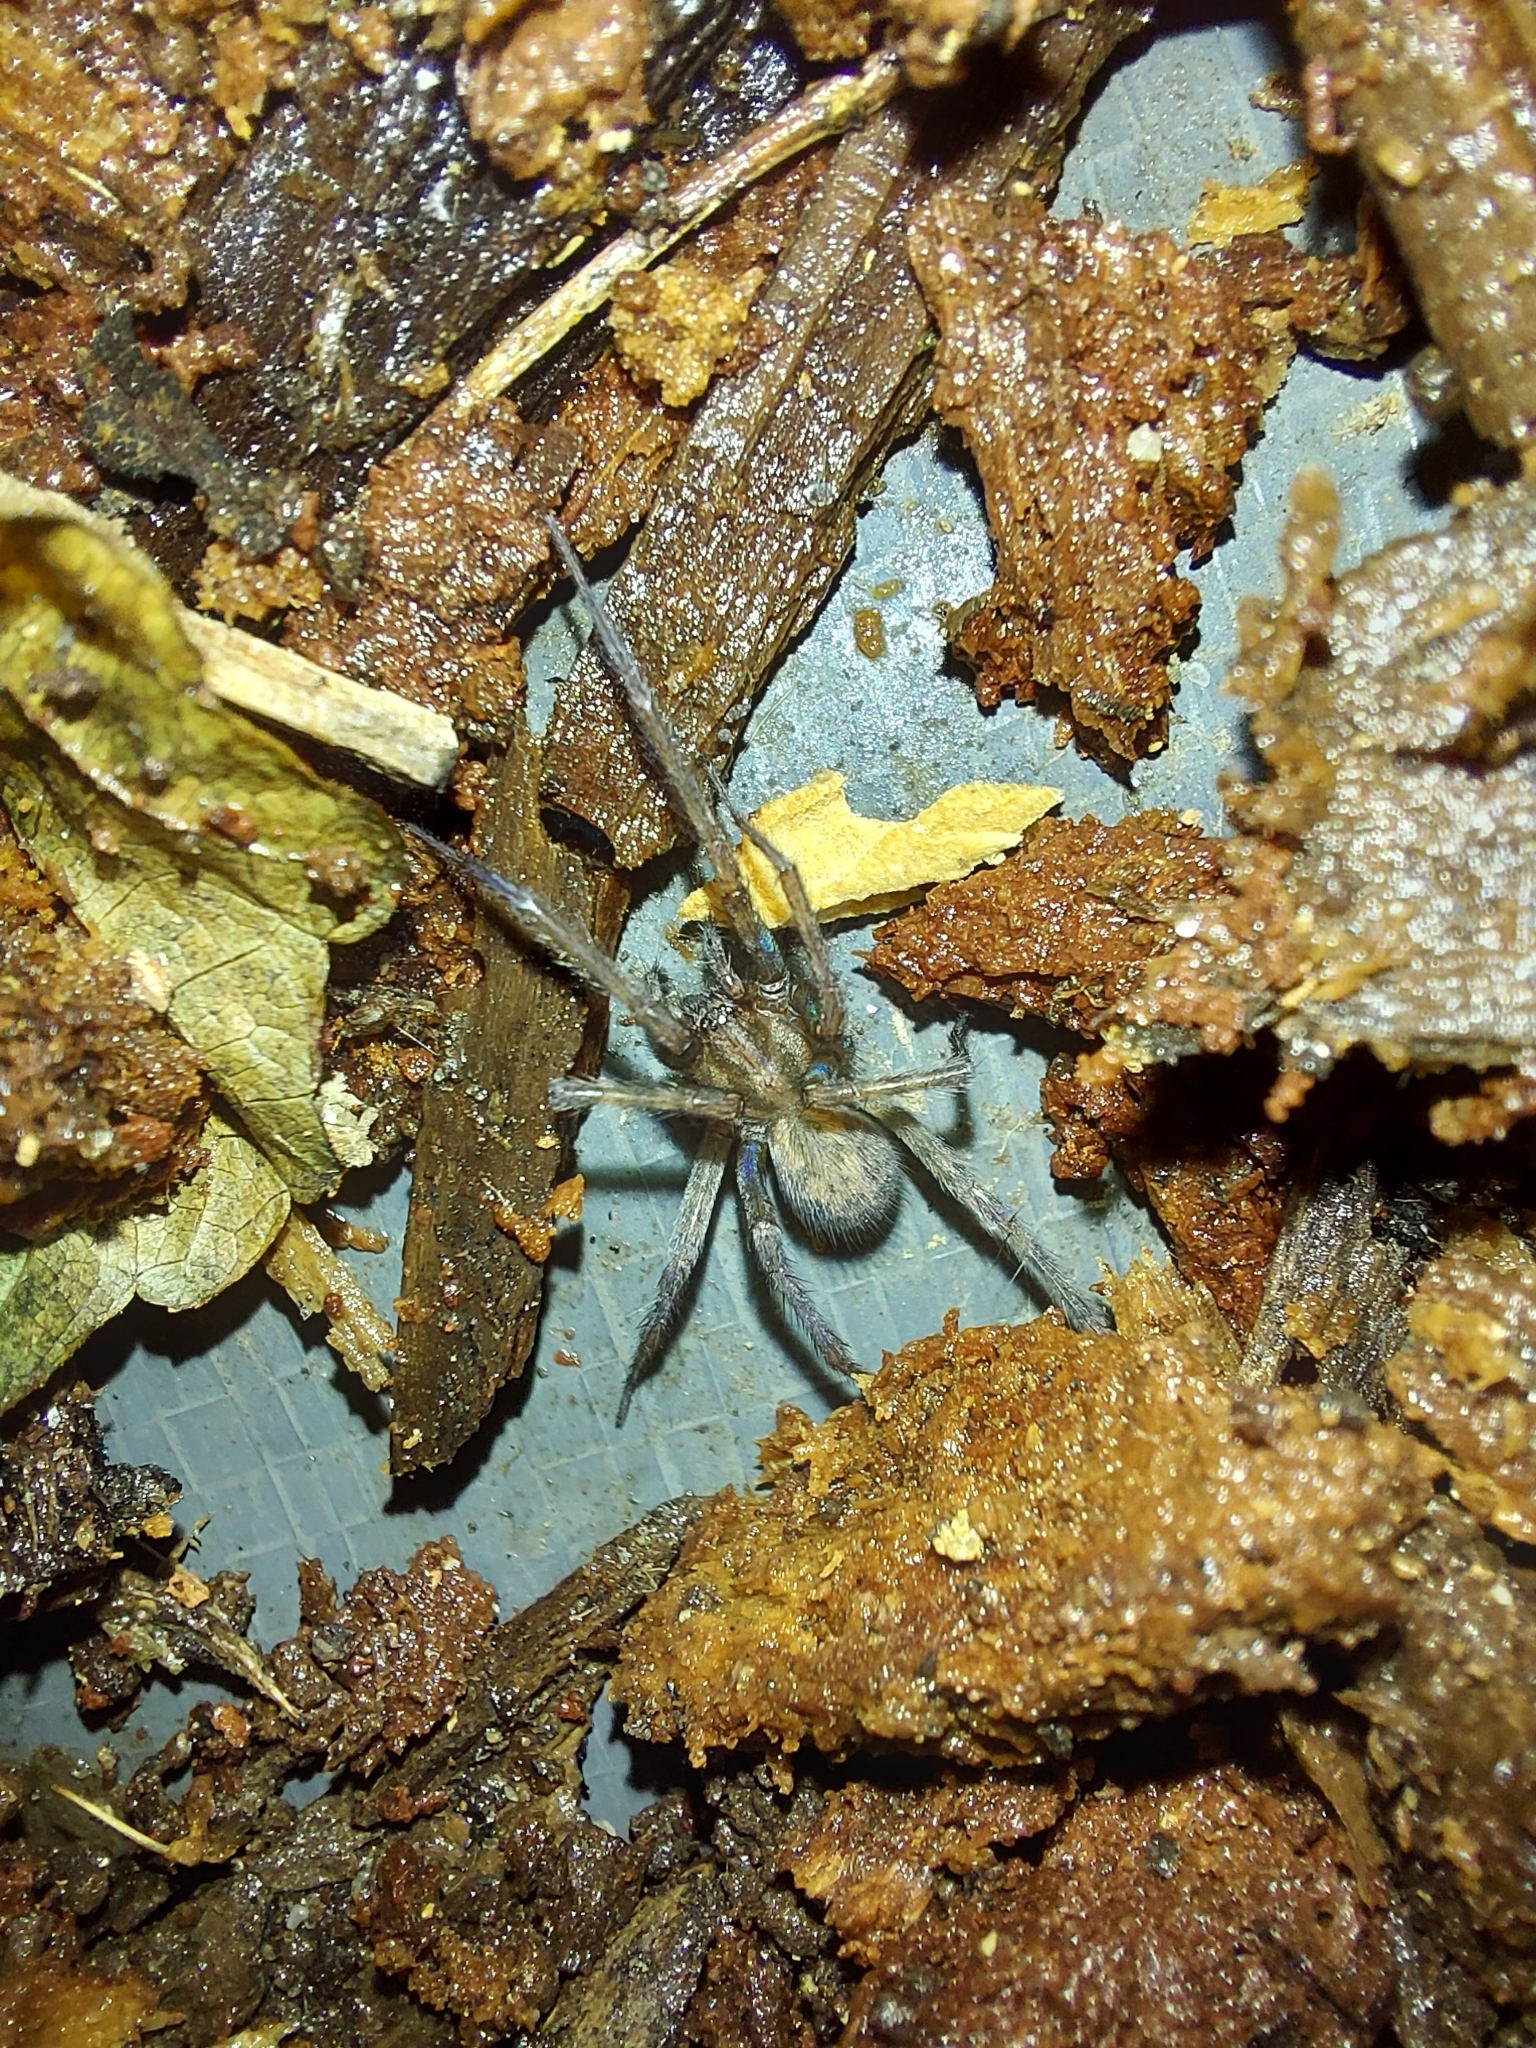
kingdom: Animalia
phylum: Arthropoda
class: Arachnida
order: Araneae
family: Agelenidae
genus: Tegenaria
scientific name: Tegenaria domestica
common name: Barn funnel weaver
